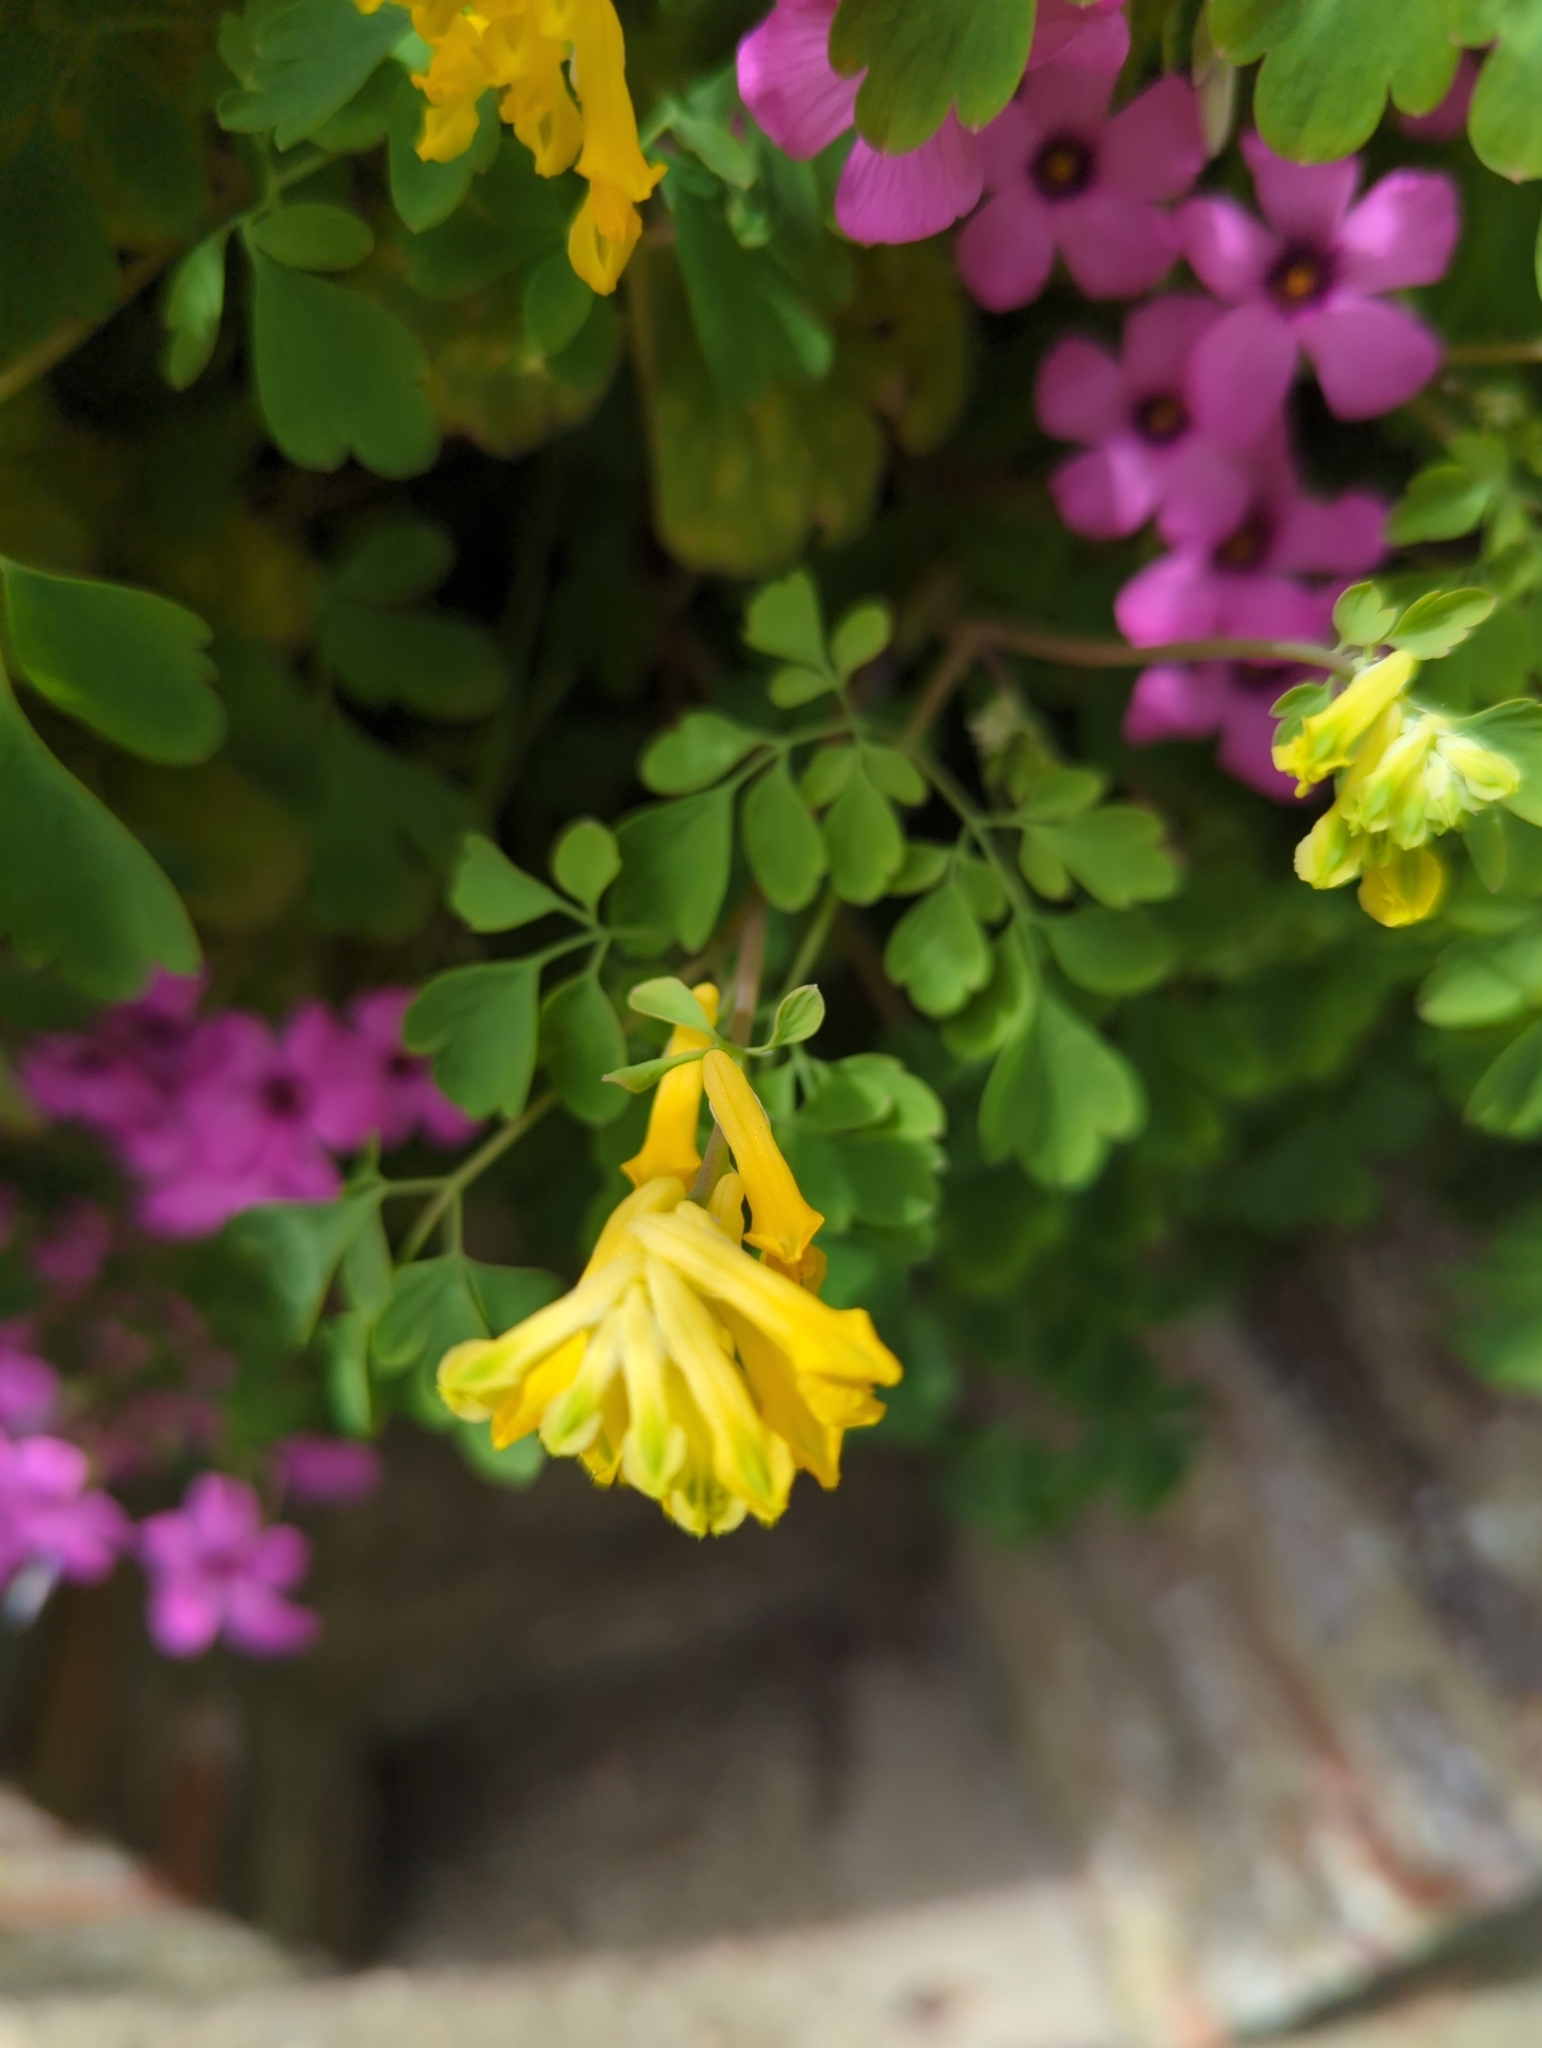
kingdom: Plantae
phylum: Tracheophyta
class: Magnoliopsida
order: Ranunculales
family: Papaveraceae
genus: Pseudofumaria
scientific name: Pseudofumaria lutea
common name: Yellow corydalis
